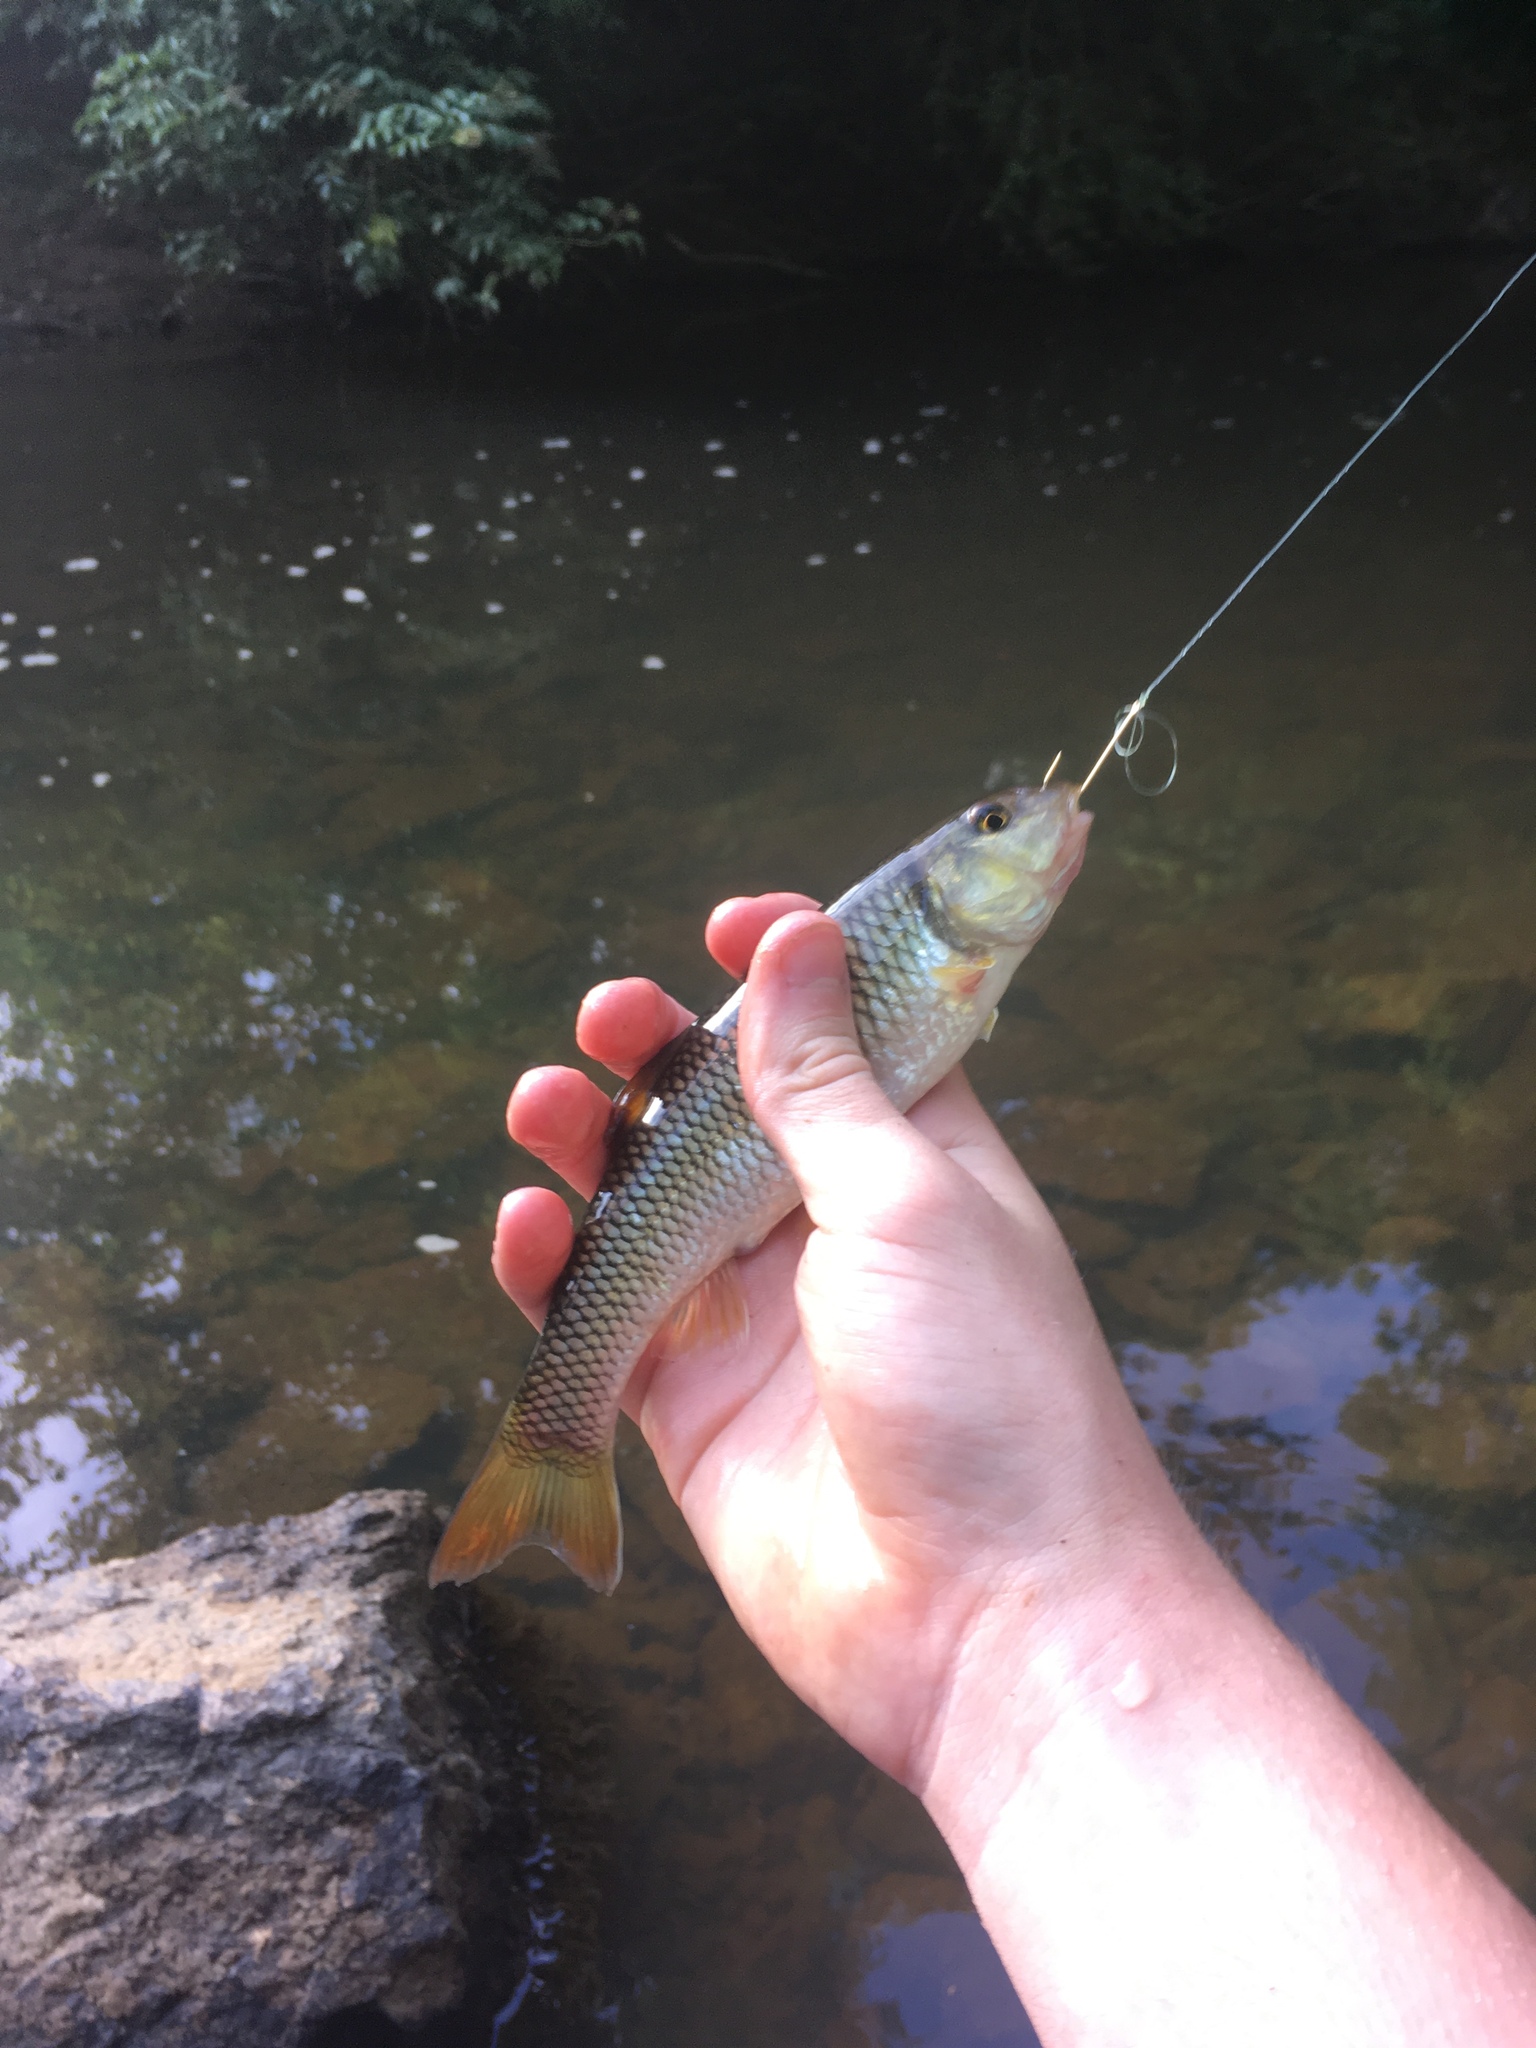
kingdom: Animalia
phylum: Chordata
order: Cypriniformes
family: Cyprinidae
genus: Nocomis
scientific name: Nocomis raneyi
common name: Bull chub
